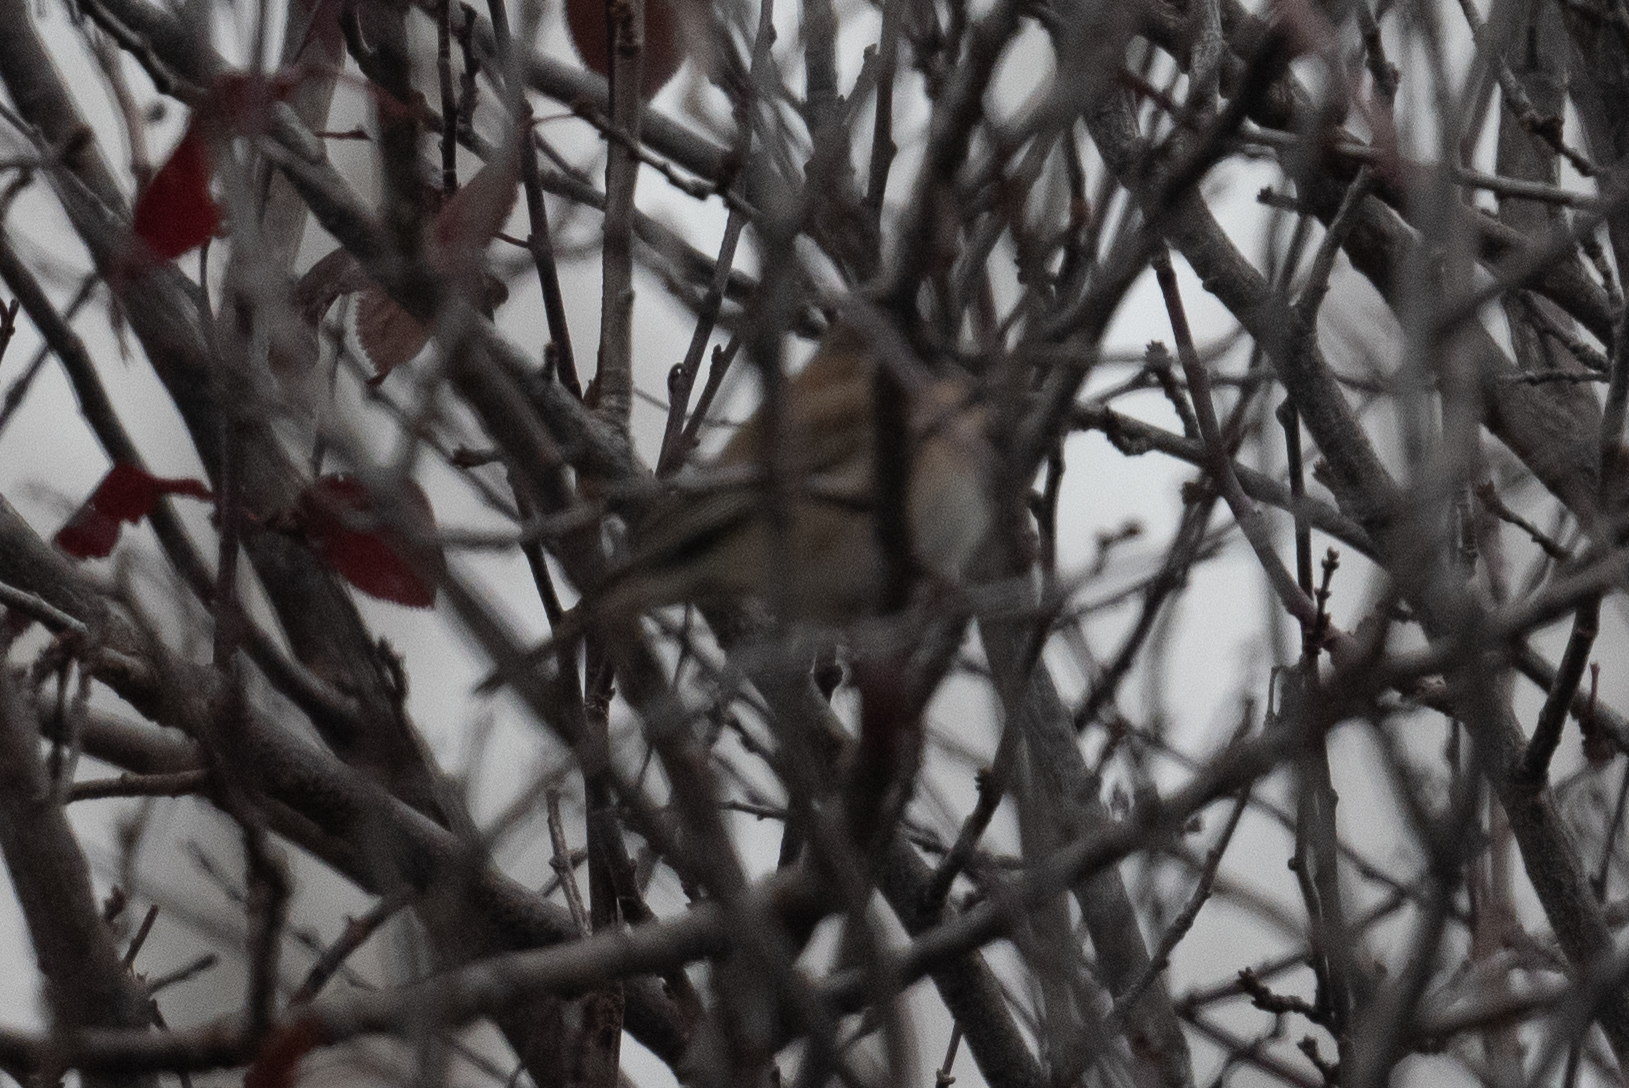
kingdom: Animalia
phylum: Chordata
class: Aves
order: Passeriformes
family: Passerellidae
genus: Junco
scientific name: Junco hyemalis
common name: Dark-eyed junco
